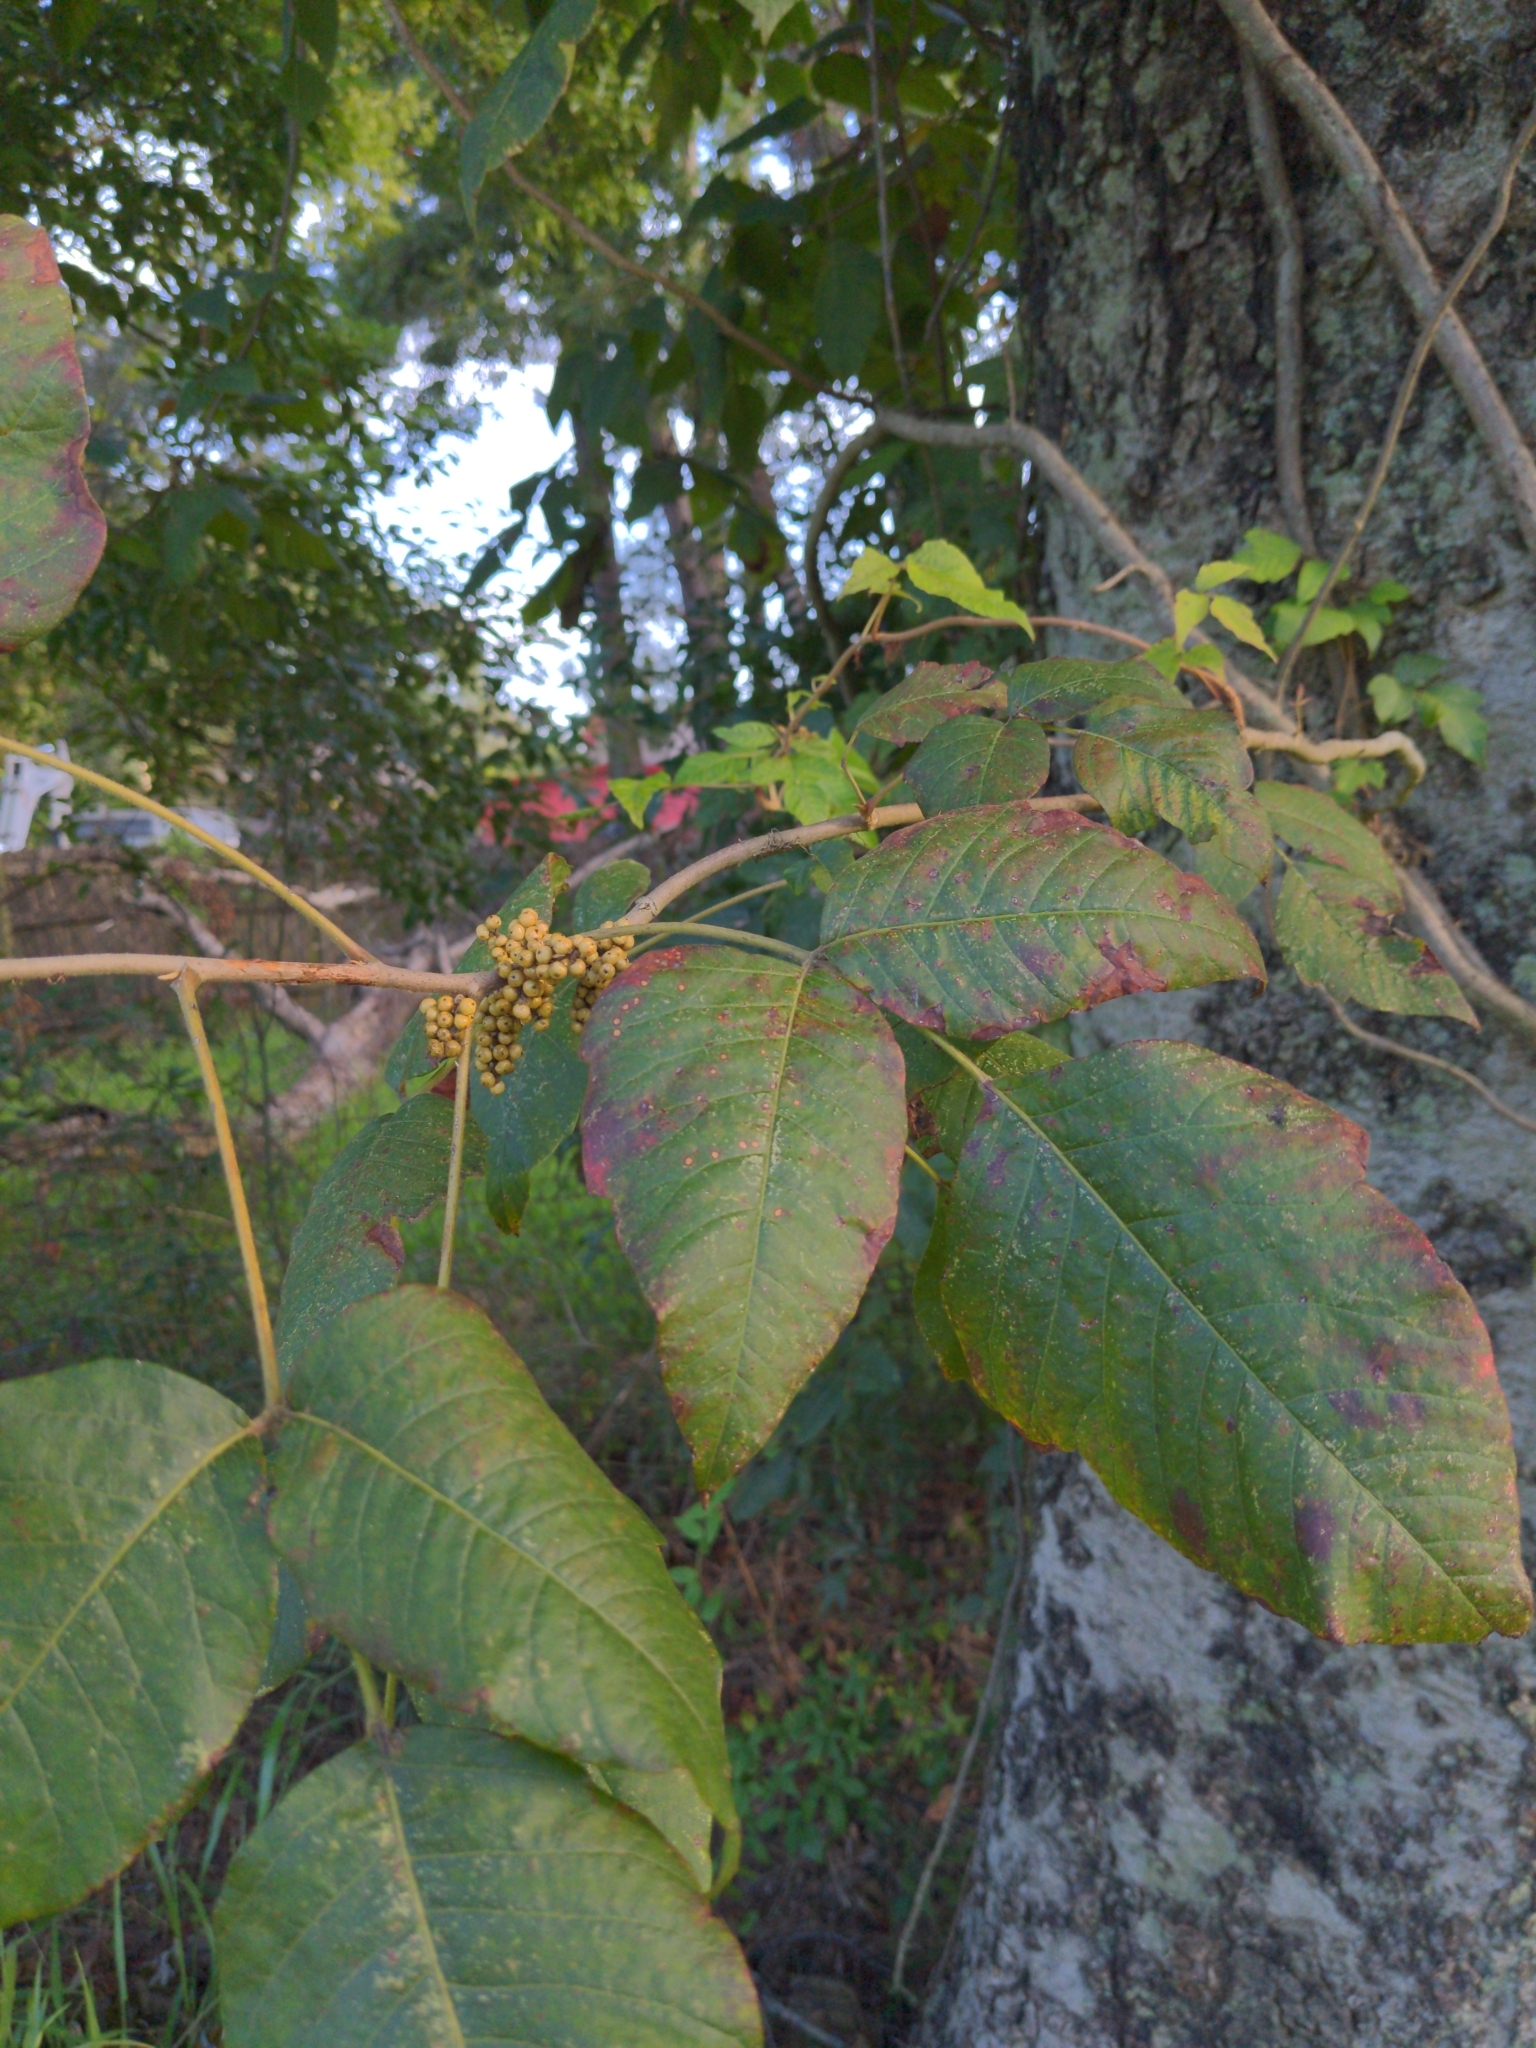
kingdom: Plantae
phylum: Tracheophyta
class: Magnoliopsida
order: Sapindales
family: Anacardiaceae
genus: Toxicodendron
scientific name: Toxicodendron radicans
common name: Poison ivy
